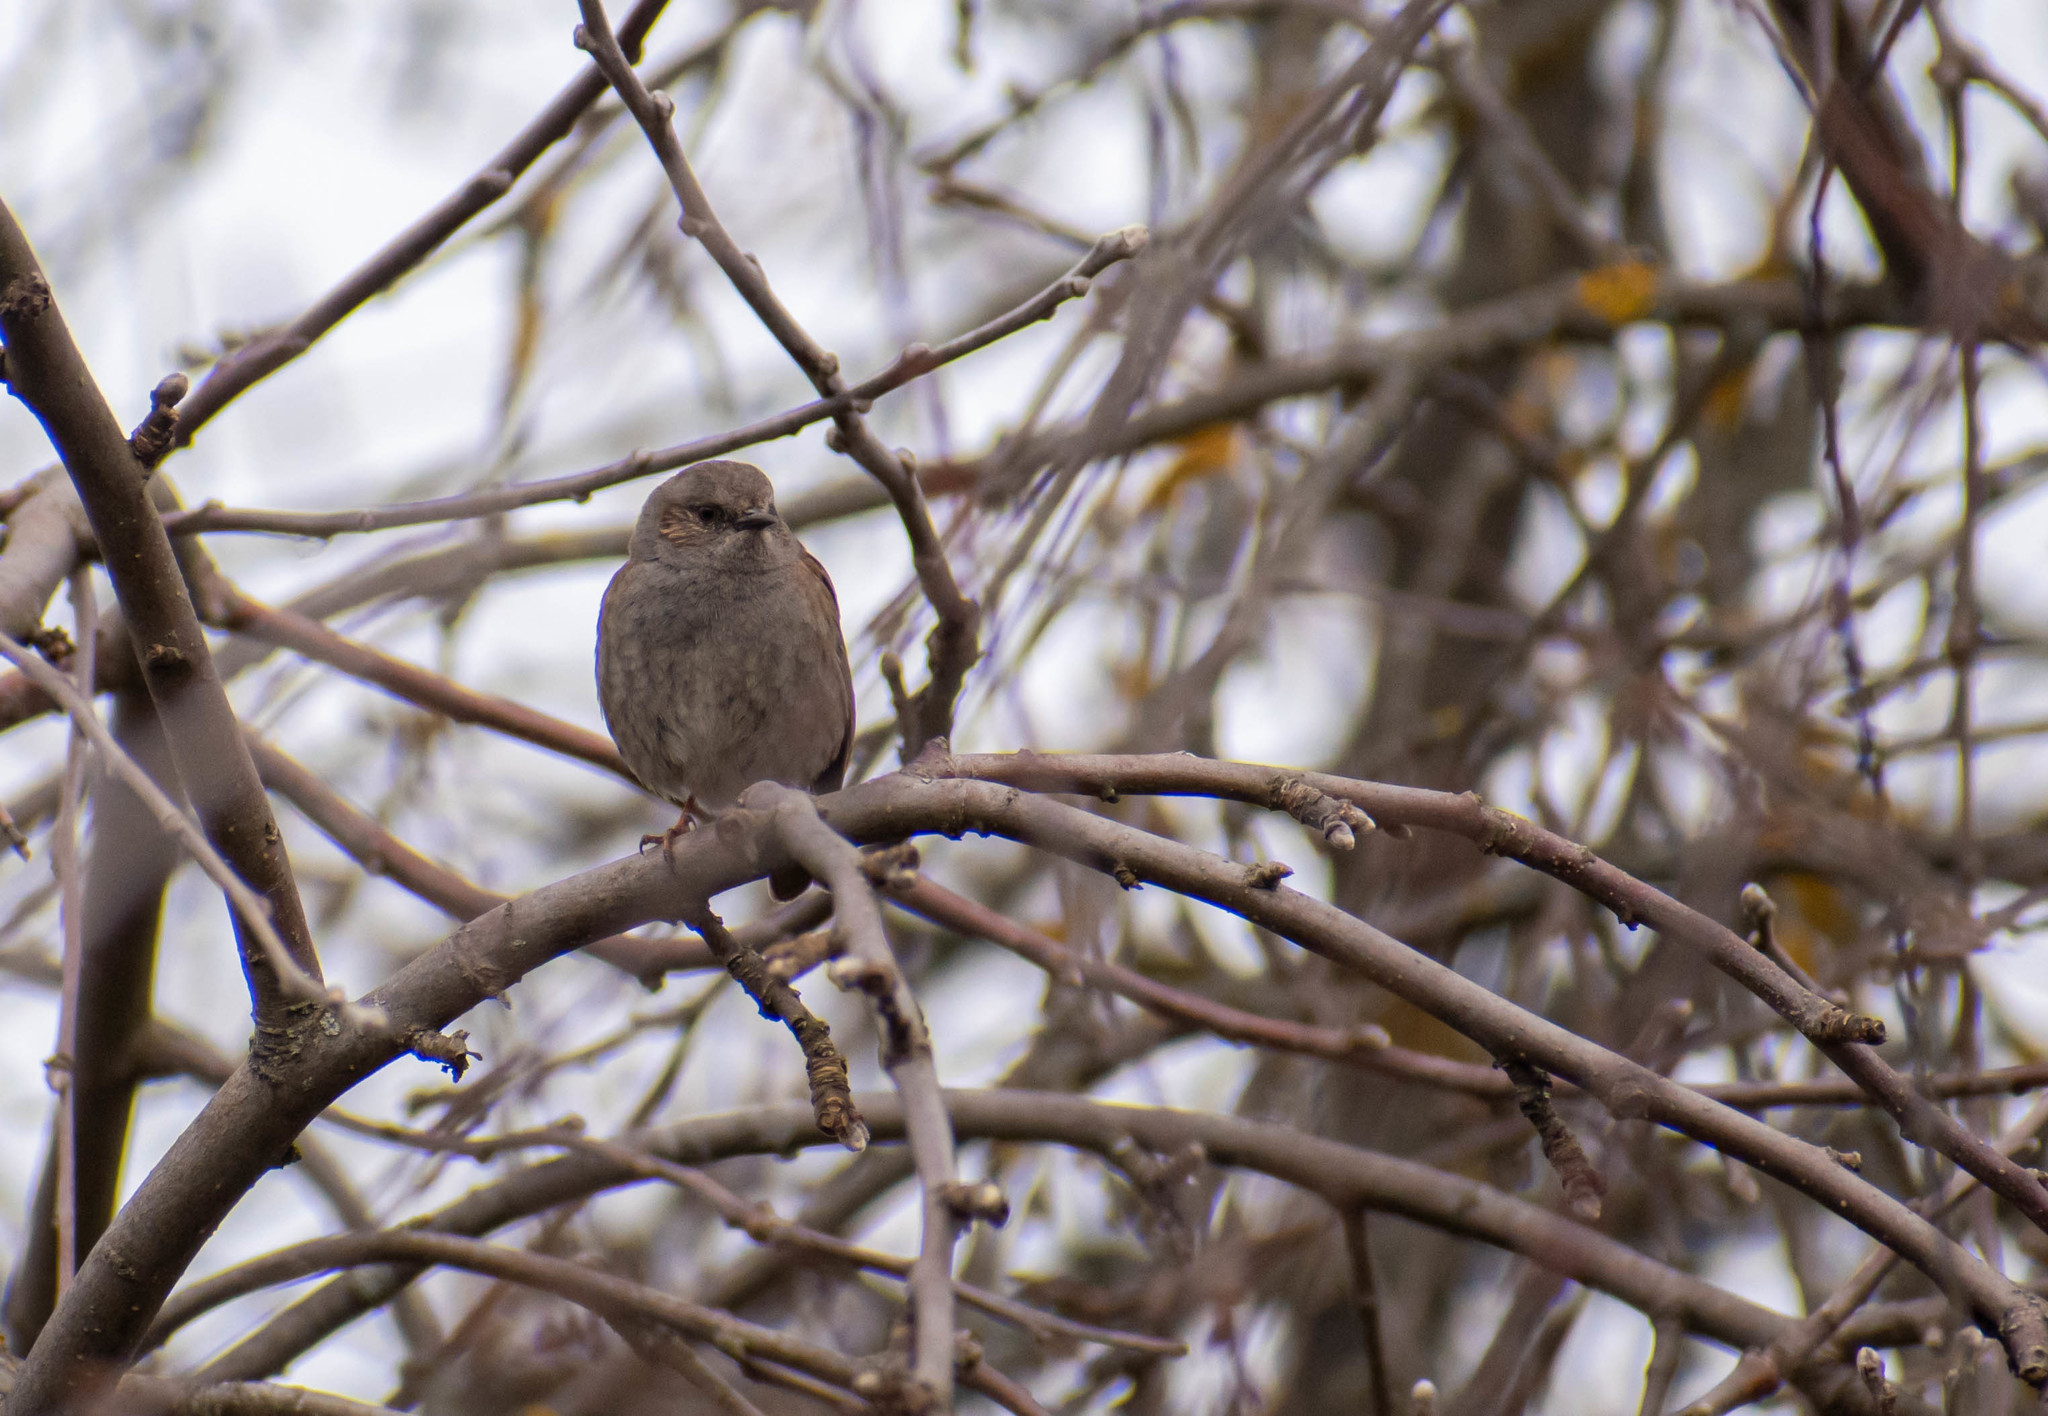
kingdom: Animalia
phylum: Chordata
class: Aves
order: Passeriformes
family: Prunellidae
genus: Prunella
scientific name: Prunella modularis
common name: Dunnock
